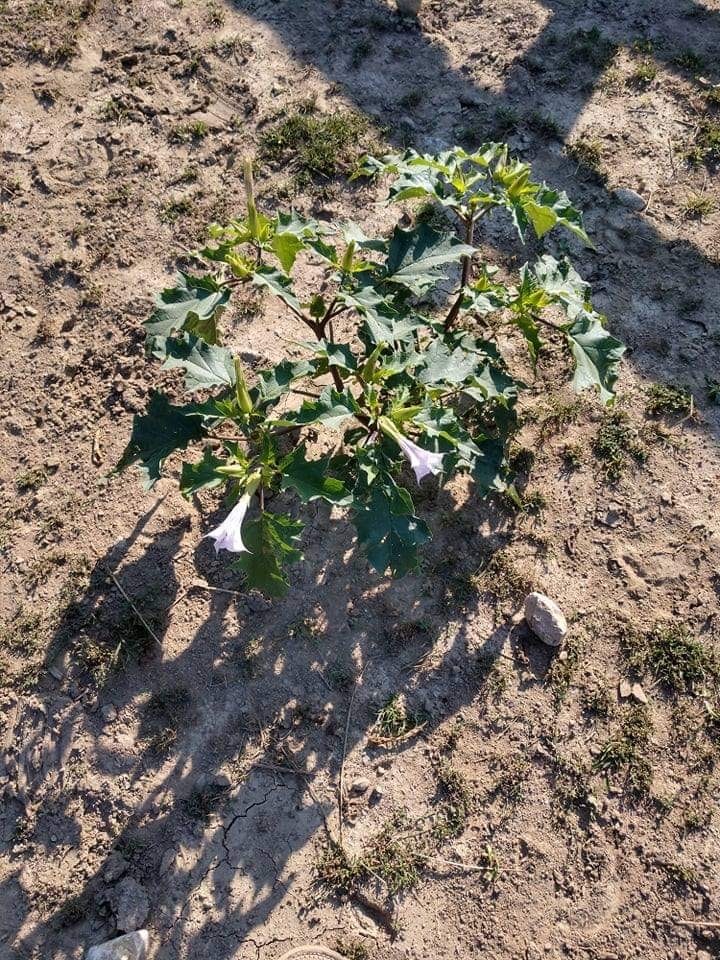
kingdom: Plantae
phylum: Tracheophyta
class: Magnoliopsida
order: Solanales
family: Solanaceae
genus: Datura
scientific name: Datura stramonium
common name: Thorn-apple
